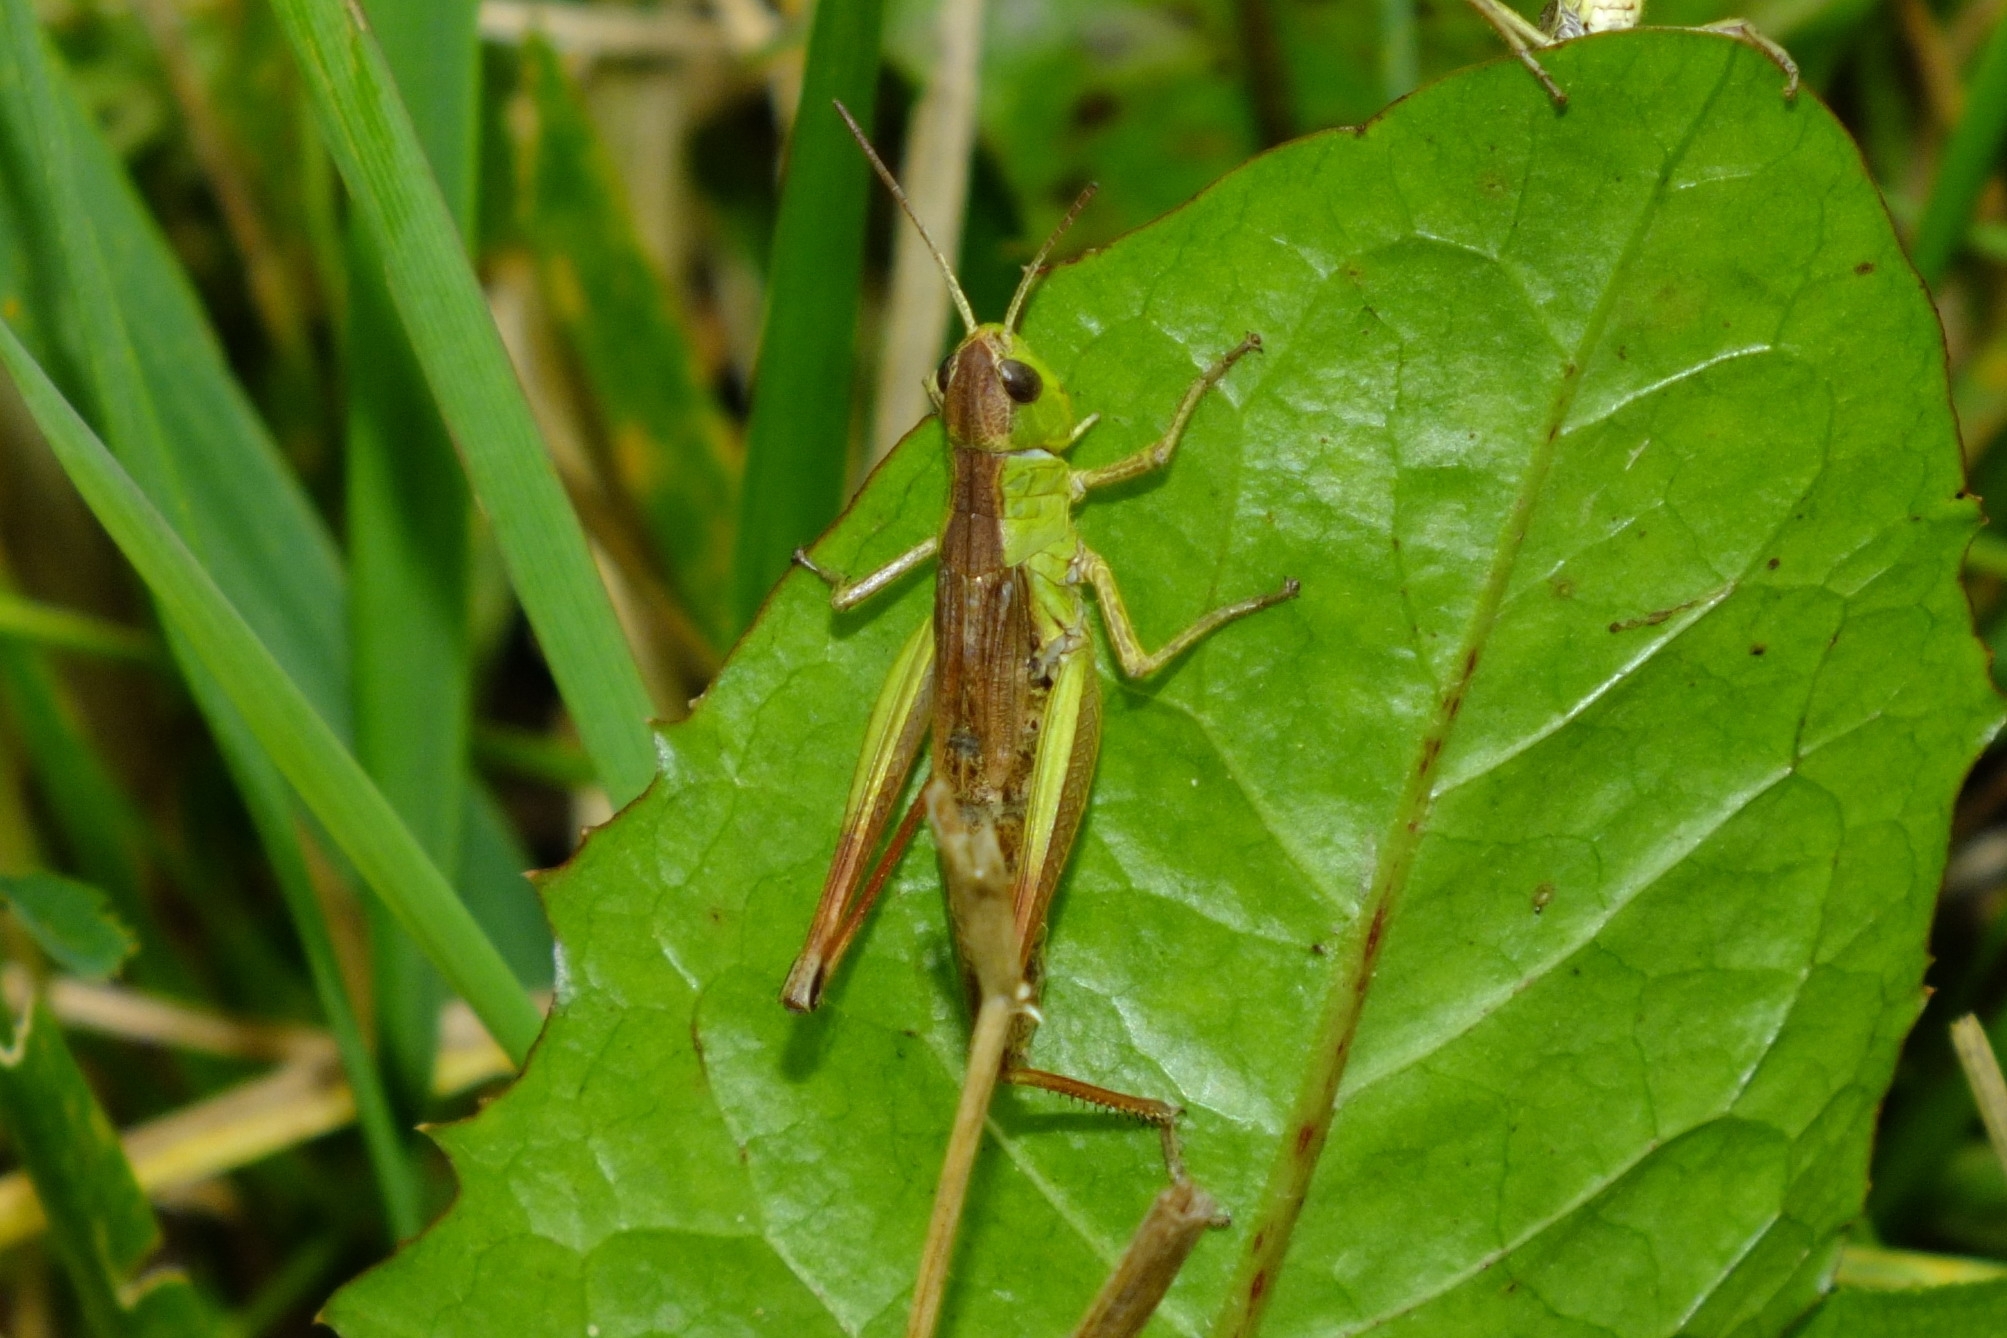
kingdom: Animalia
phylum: Arthropoda
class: Insecta
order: Orthoptera
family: Acrididae
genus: Pseudochorthippus
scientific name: Pseudochorthippus parallelus
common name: Meadow grasshopper
